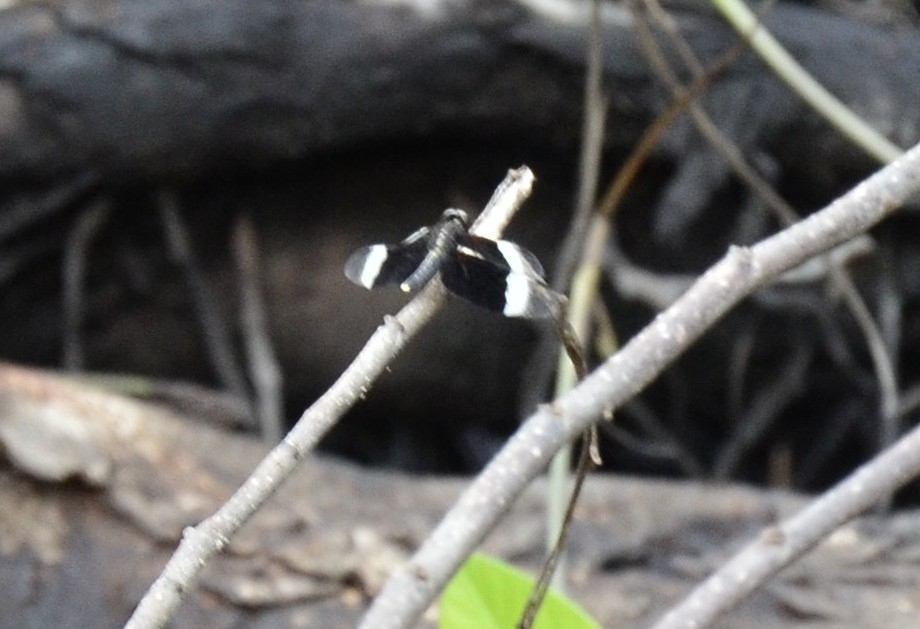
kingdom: Animalia
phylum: Arthropoda
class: Insecta
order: Odonata
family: Libellulidae
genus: Neurothemis
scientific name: Neurothemis tullia
